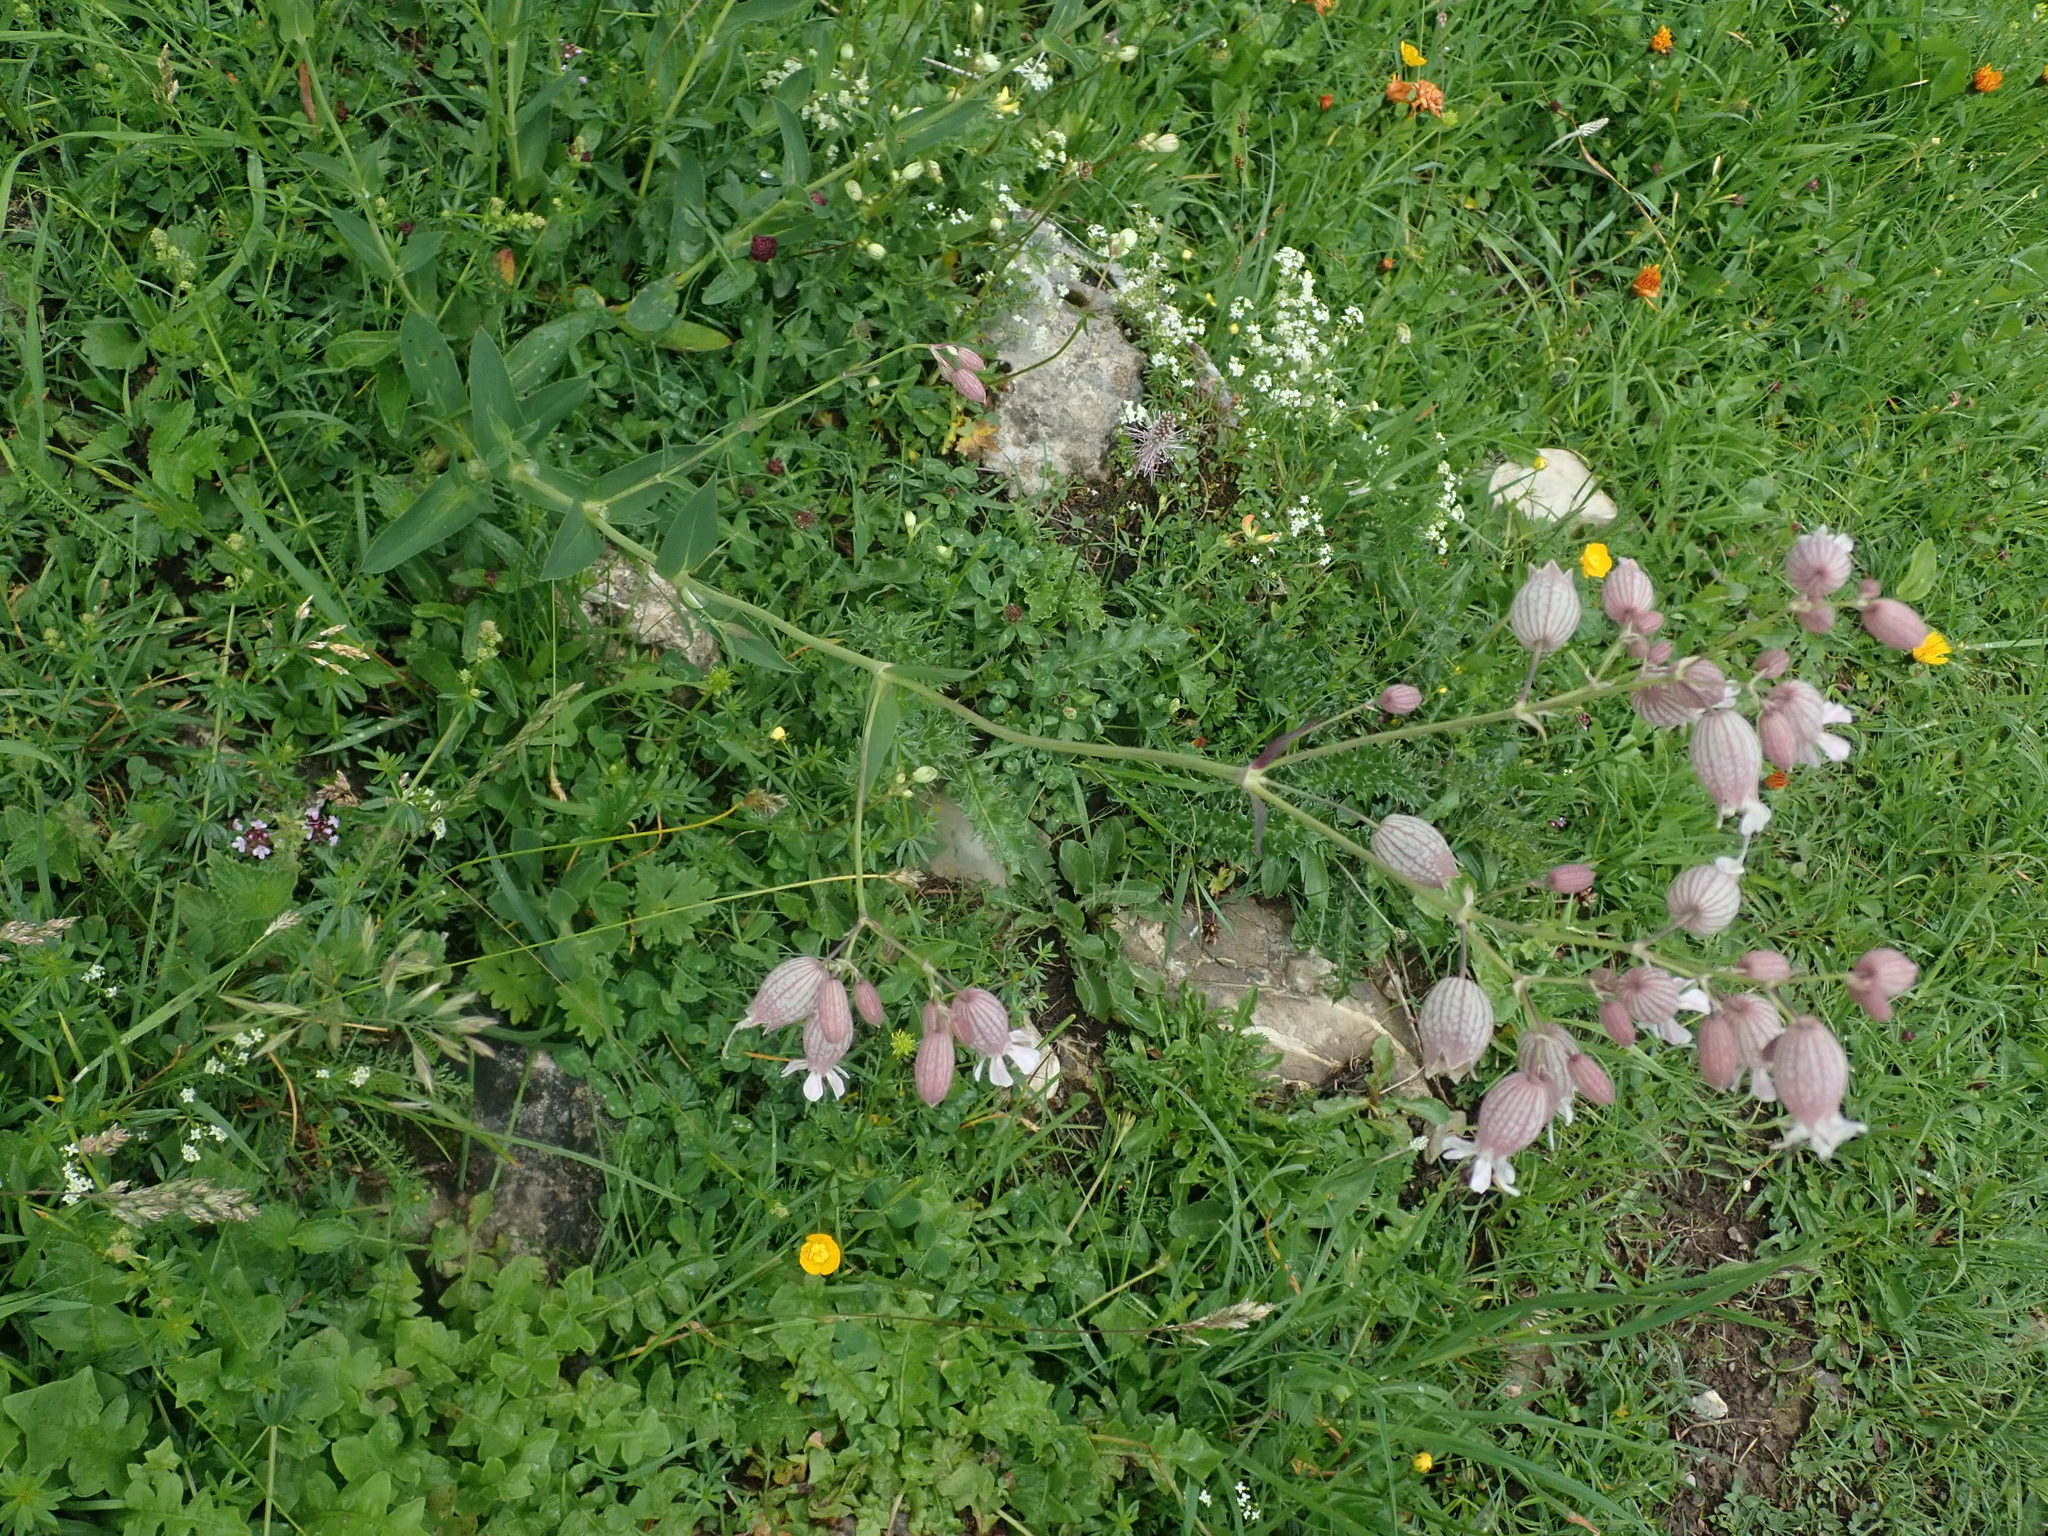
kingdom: Plantae
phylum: Tracheophyta
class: Magnoliopsida
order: Caryophyllales
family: Caryophyllaceae
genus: Silene
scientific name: Silene vulgaris
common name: Bladder campion
